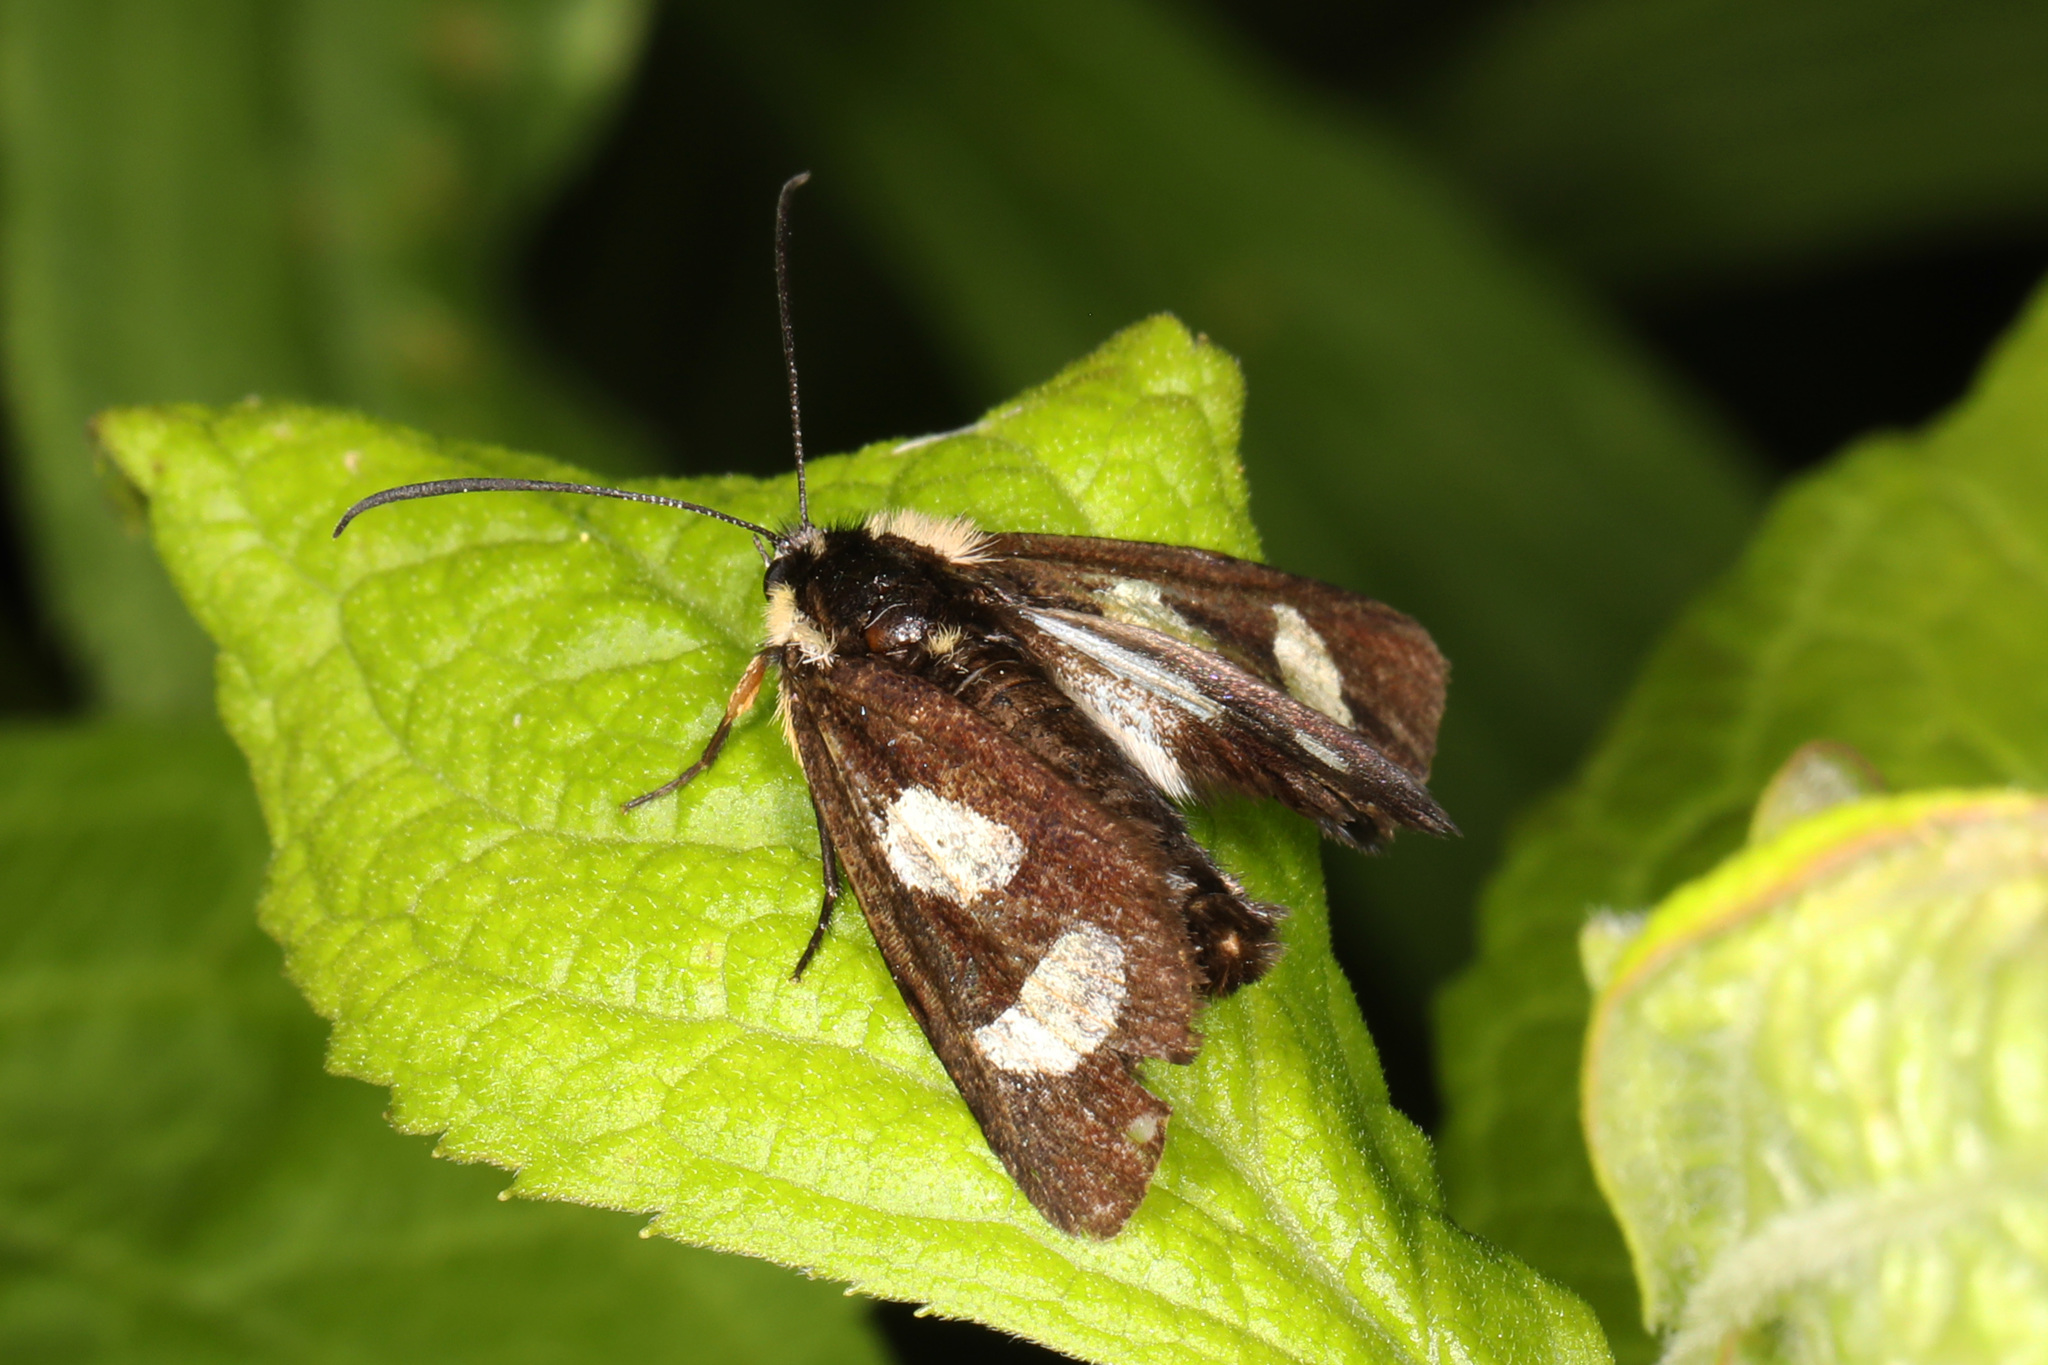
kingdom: Animalia
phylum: Arthropoda
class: Insecta
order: Lepidoptera
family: Noctuidae
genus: Alypia
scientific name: Alypia octomaculata
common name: Eight-spotted forester
